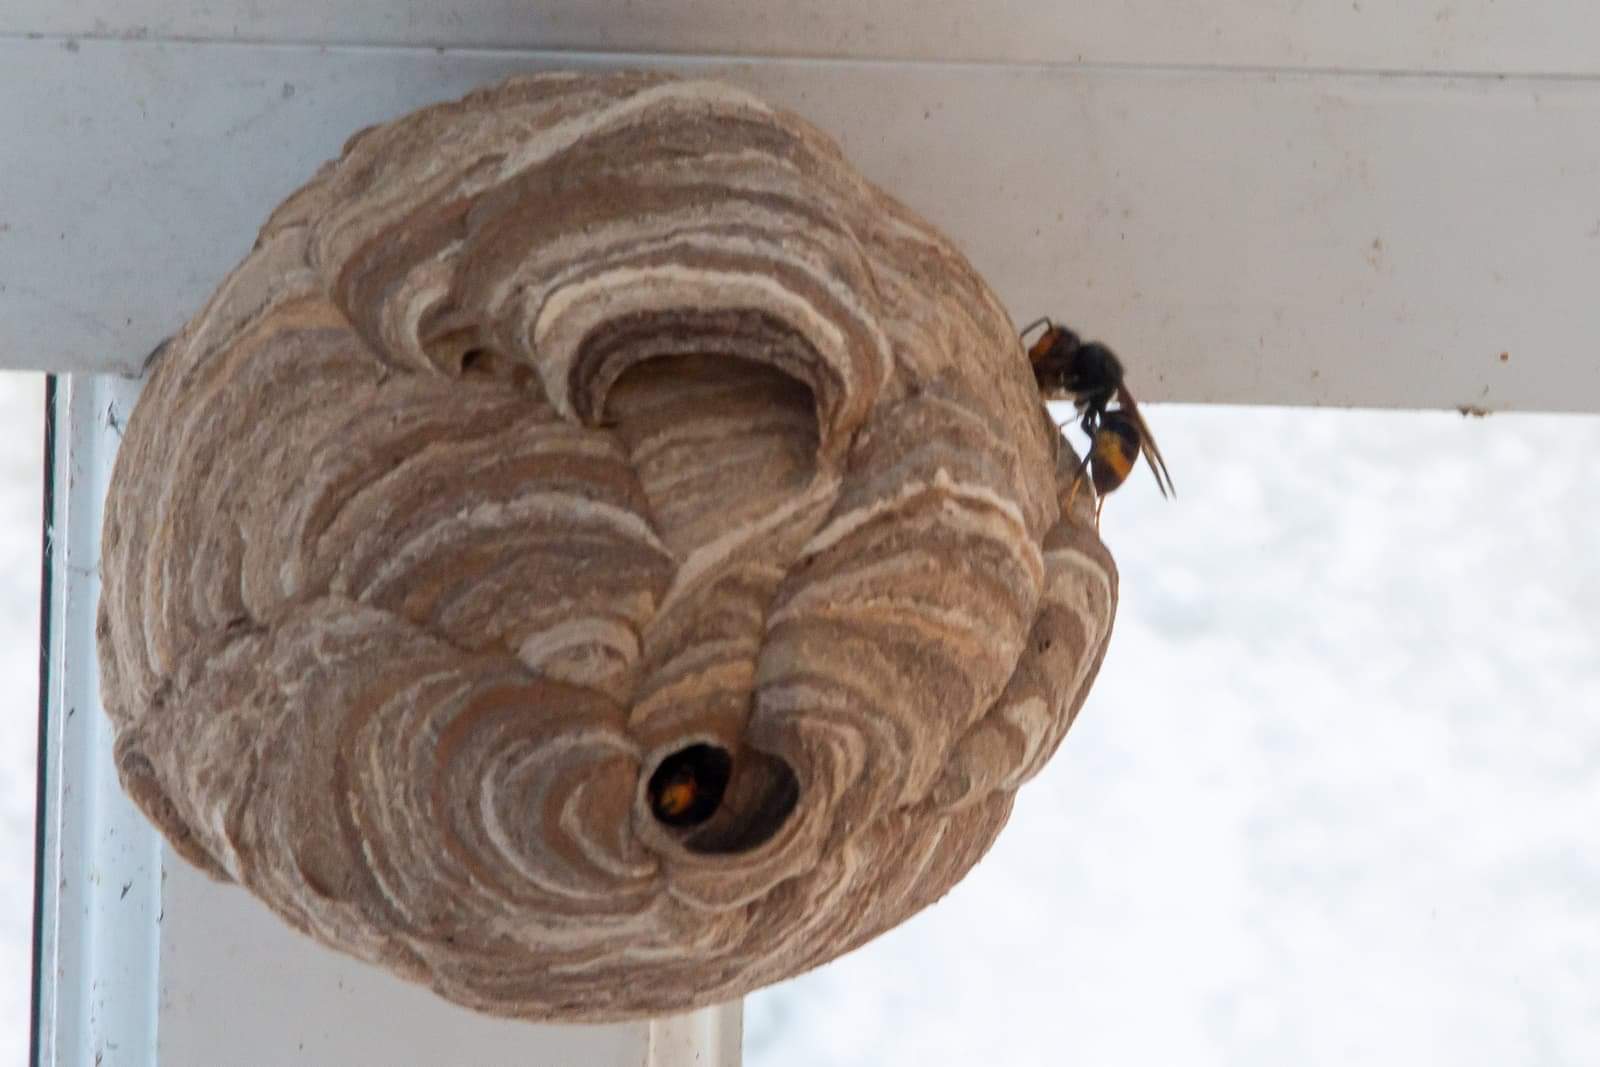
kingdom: Animalia
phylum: Arthropoda
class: Insecta
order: Hymenoptera
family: Vespidae
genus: Vespa
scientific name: Vespa velutina
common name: Asian hornet
